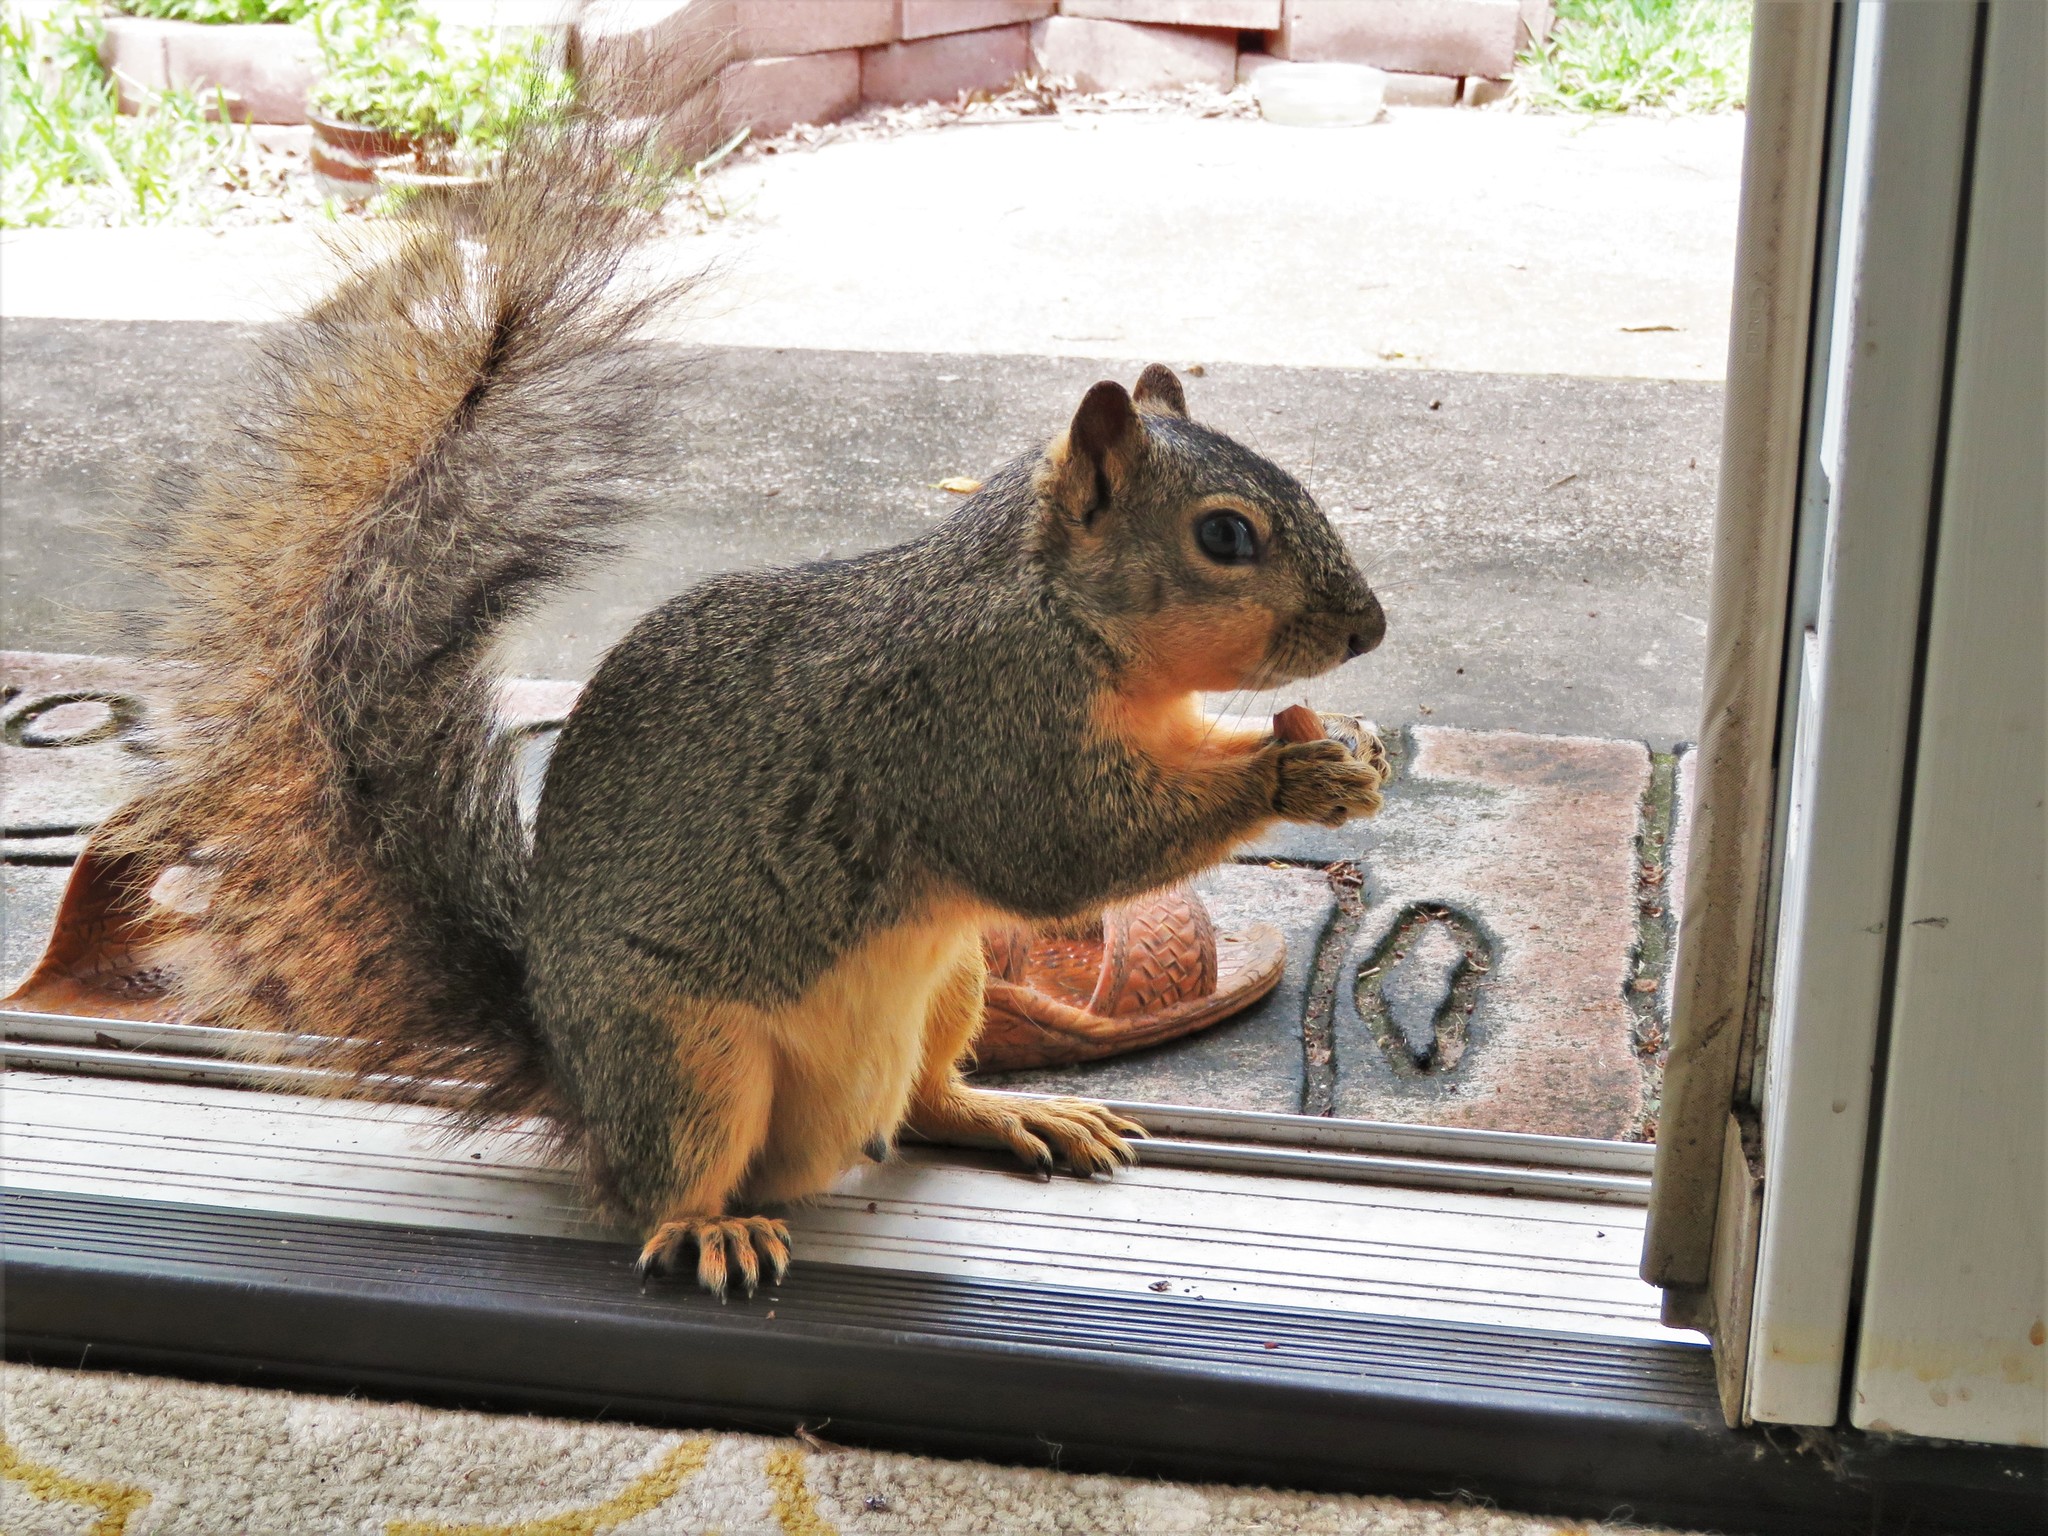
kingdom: Animalia
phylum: Chordata
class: Mammalia
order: Rodentia
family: Sciuridae
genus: Sciurus
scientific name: Sciurus niger
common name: Fox squirrel
